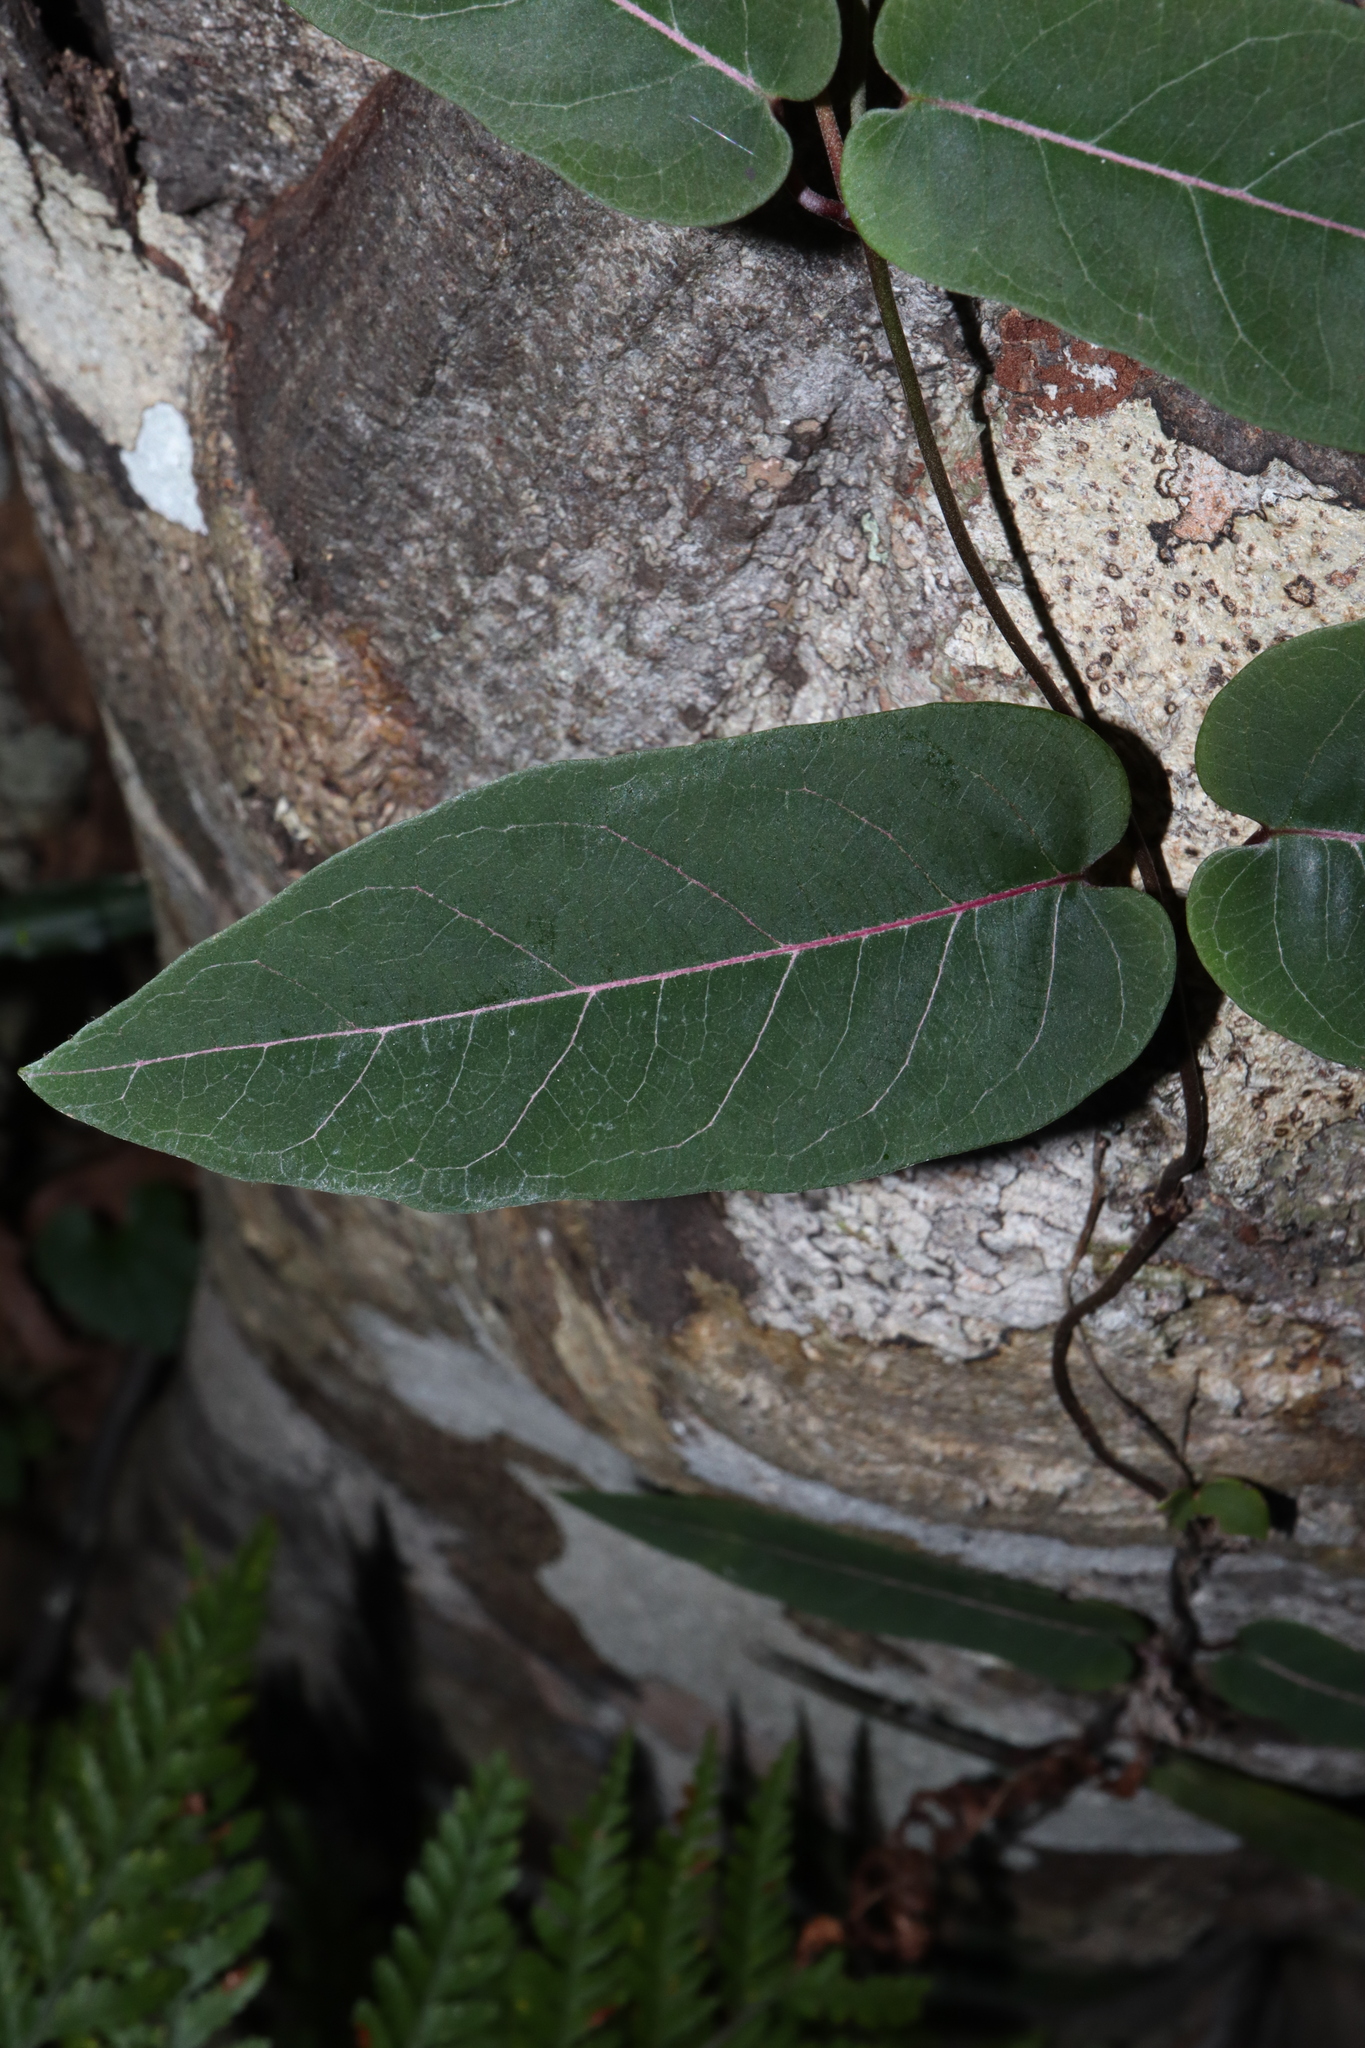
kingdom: Plantae
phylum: Tracheophyta
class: Magnoliopsida
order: Gentianales
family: Apocynaceae
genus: Parsonsia
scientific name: Parsonsia straminea
